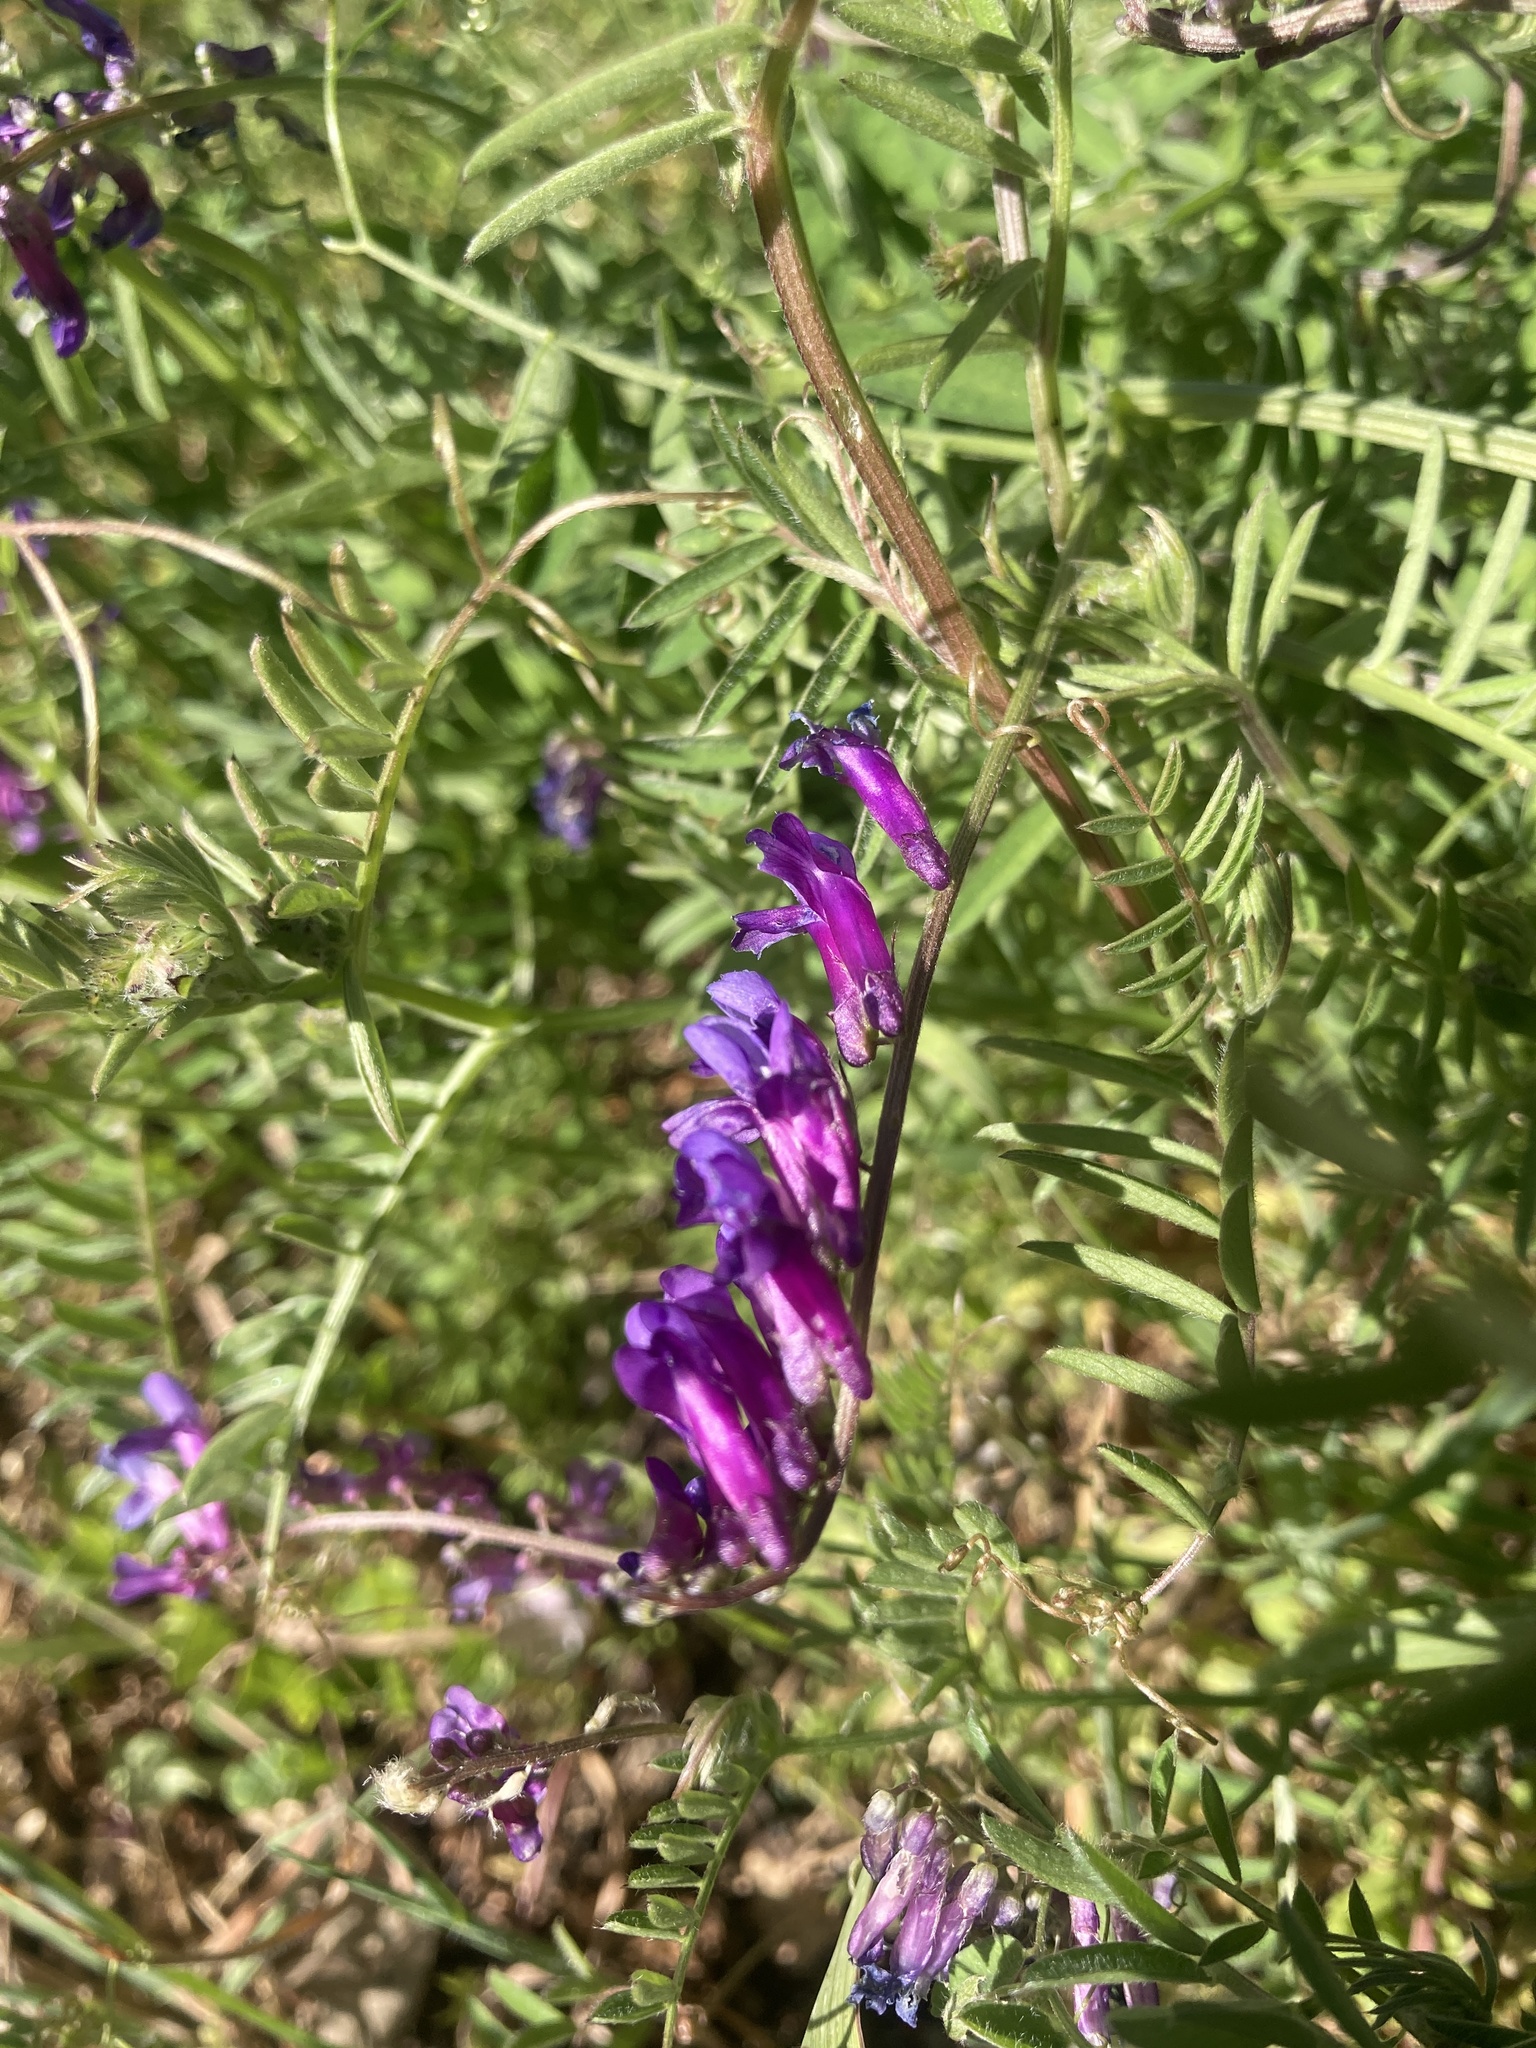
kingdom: Plantae
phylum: Tracheophyta
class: Magnoliopsida
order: Fabales
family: Fabaceae
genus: Vicia
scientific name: Vicia villosa
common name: Fodder vetch
